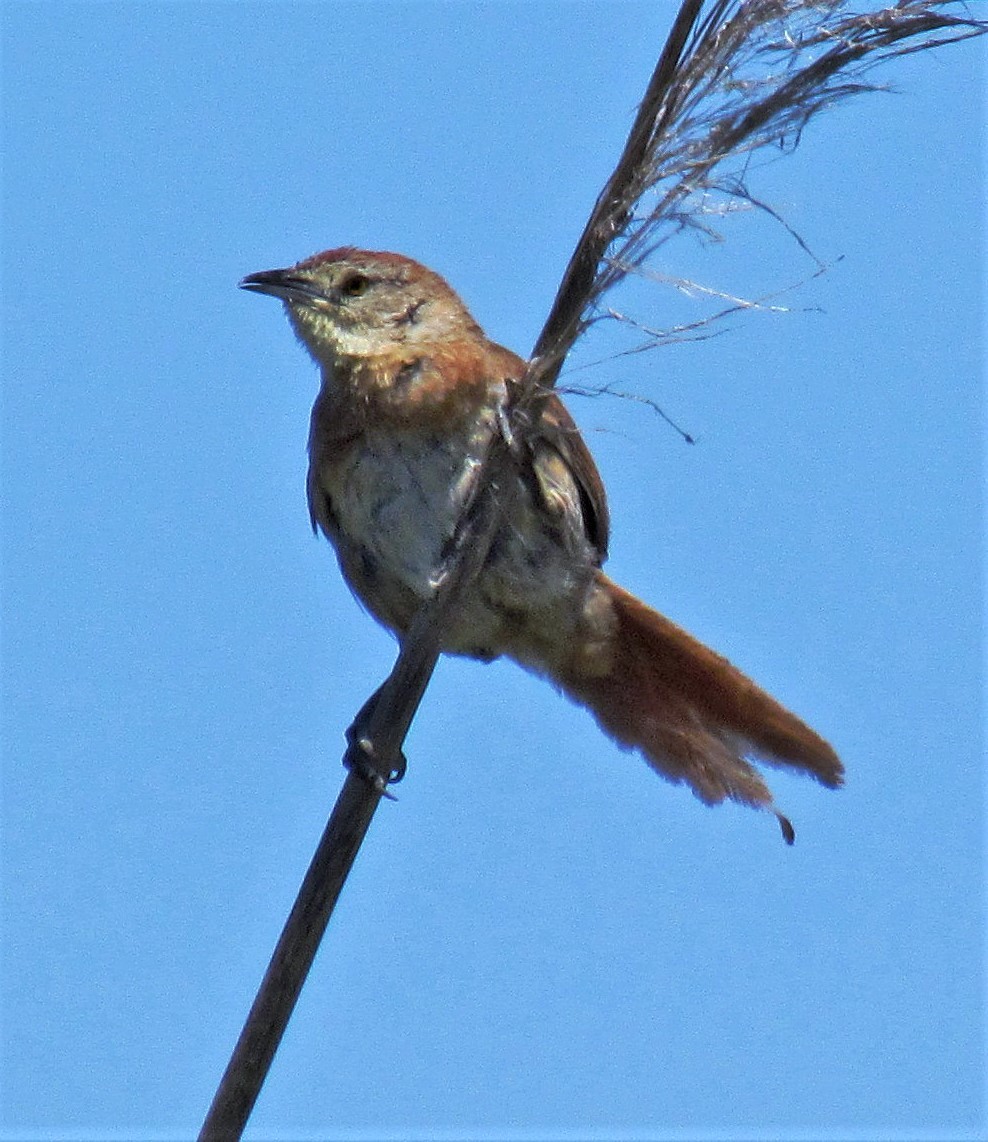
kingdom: Animalia
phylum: Chordata
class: Aves
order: Passeriformes
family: Furnariidae
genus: Phacellodomus
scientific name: Phacellodomus striaticollis
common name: Freckle-breasted thornbird
